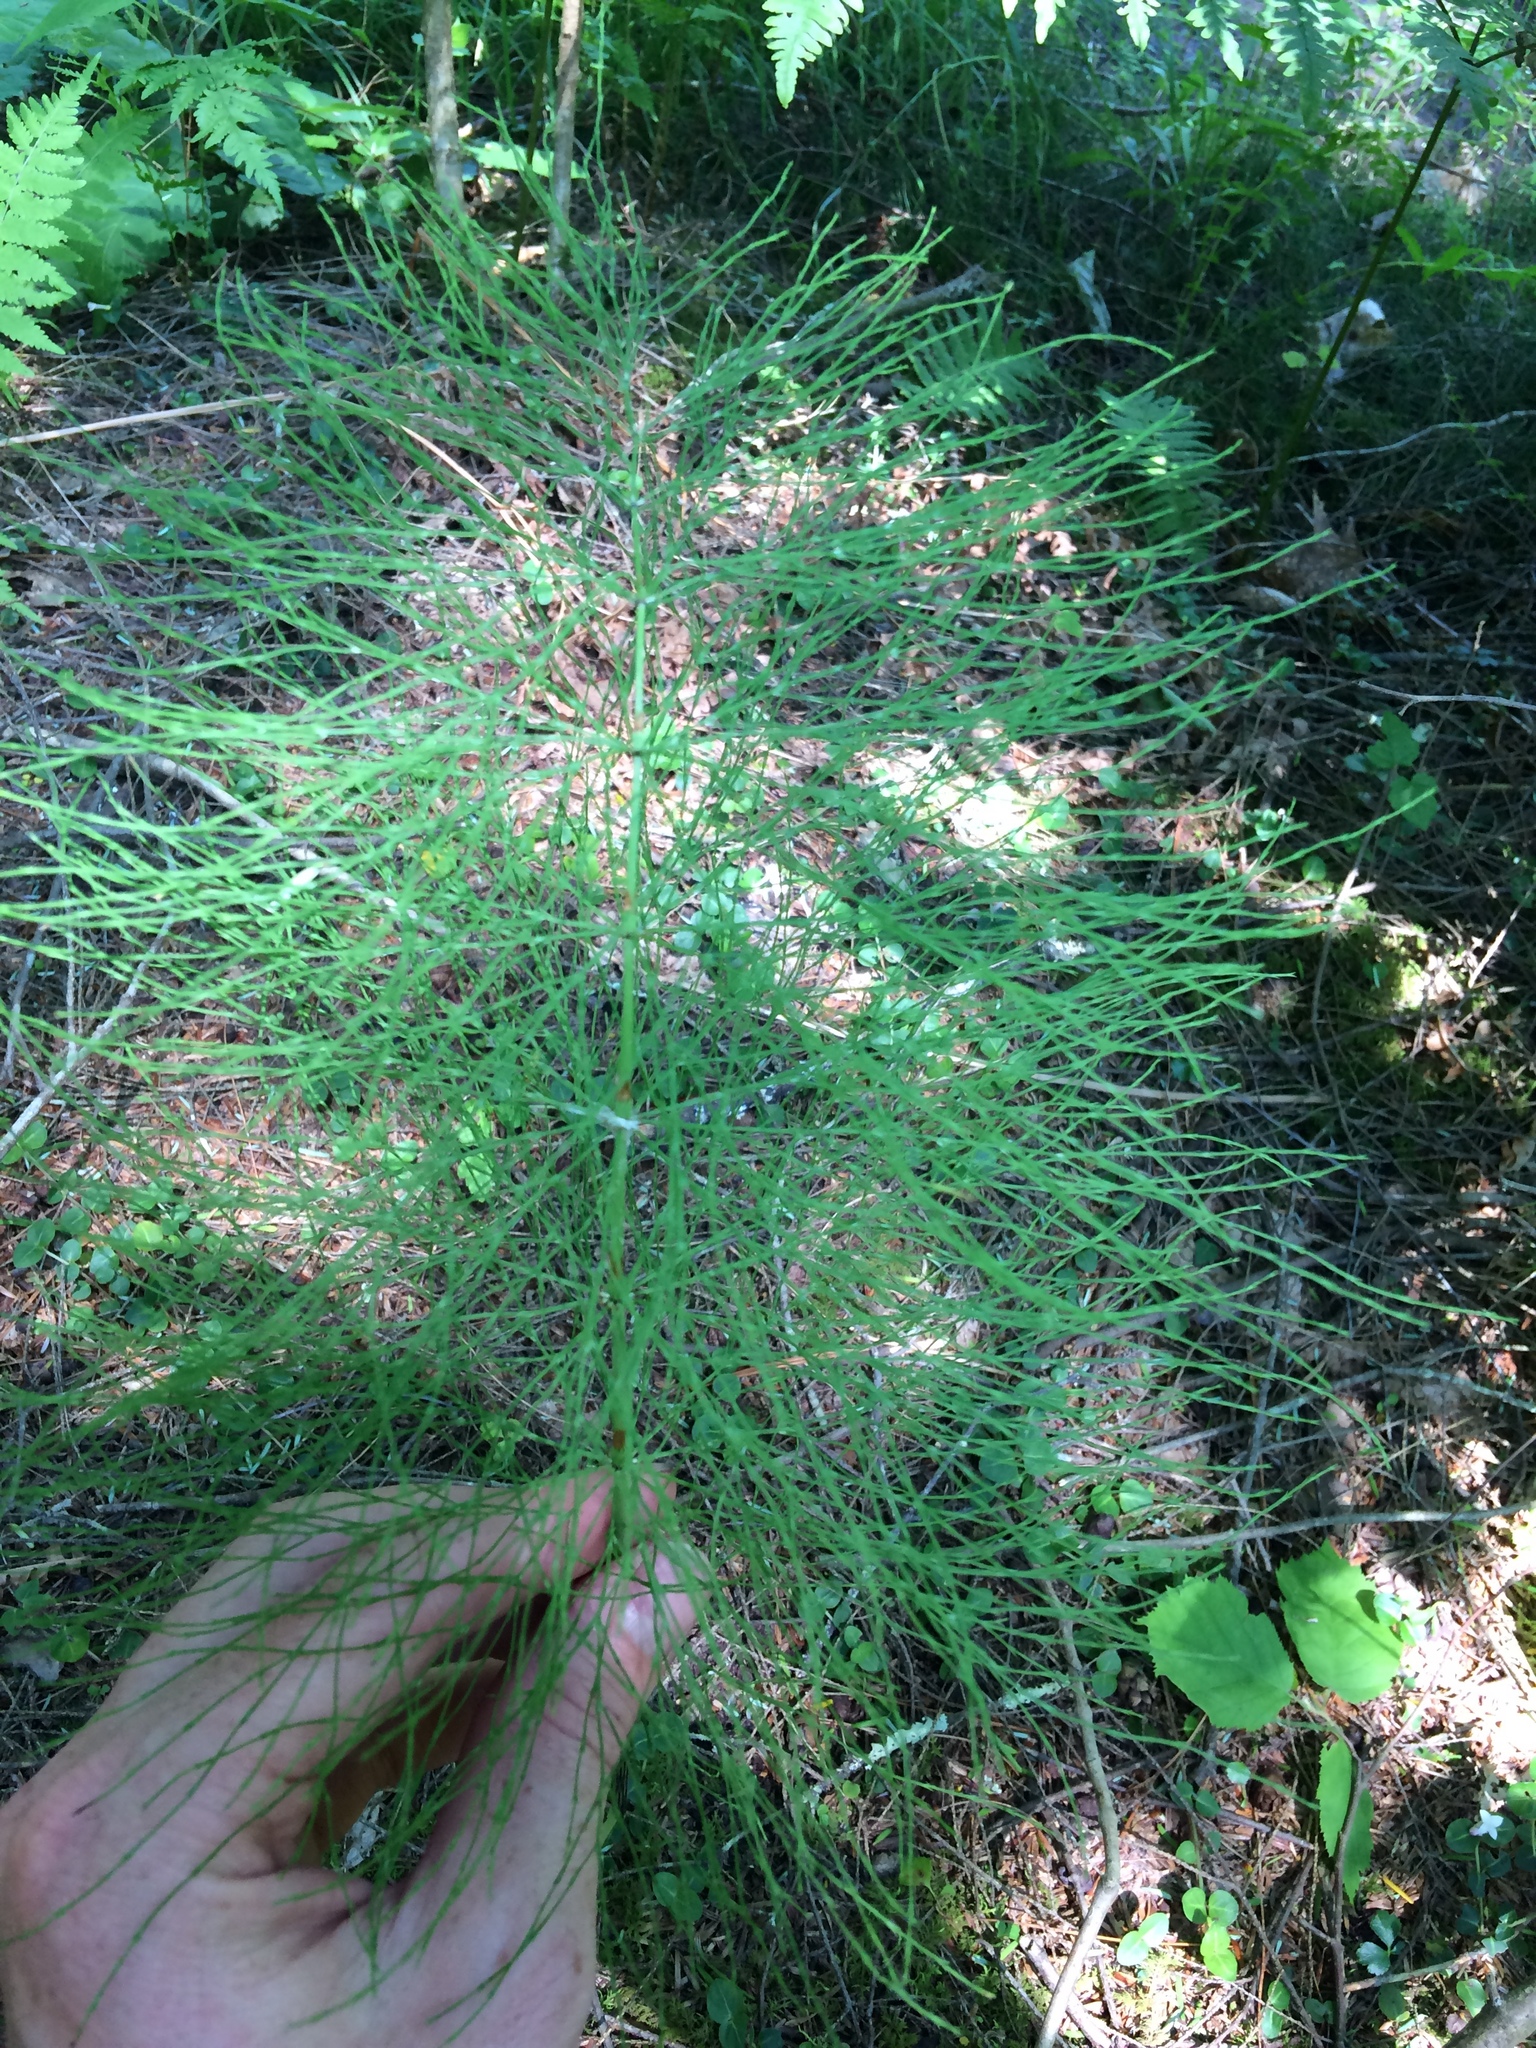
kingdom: Plantae
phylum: Tracheophyta
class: Polypodiopsida
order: Equisetales
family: Equisetaceae
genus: Equisetum
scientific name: Equisetum sylvaticum
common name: Wood horsetail
